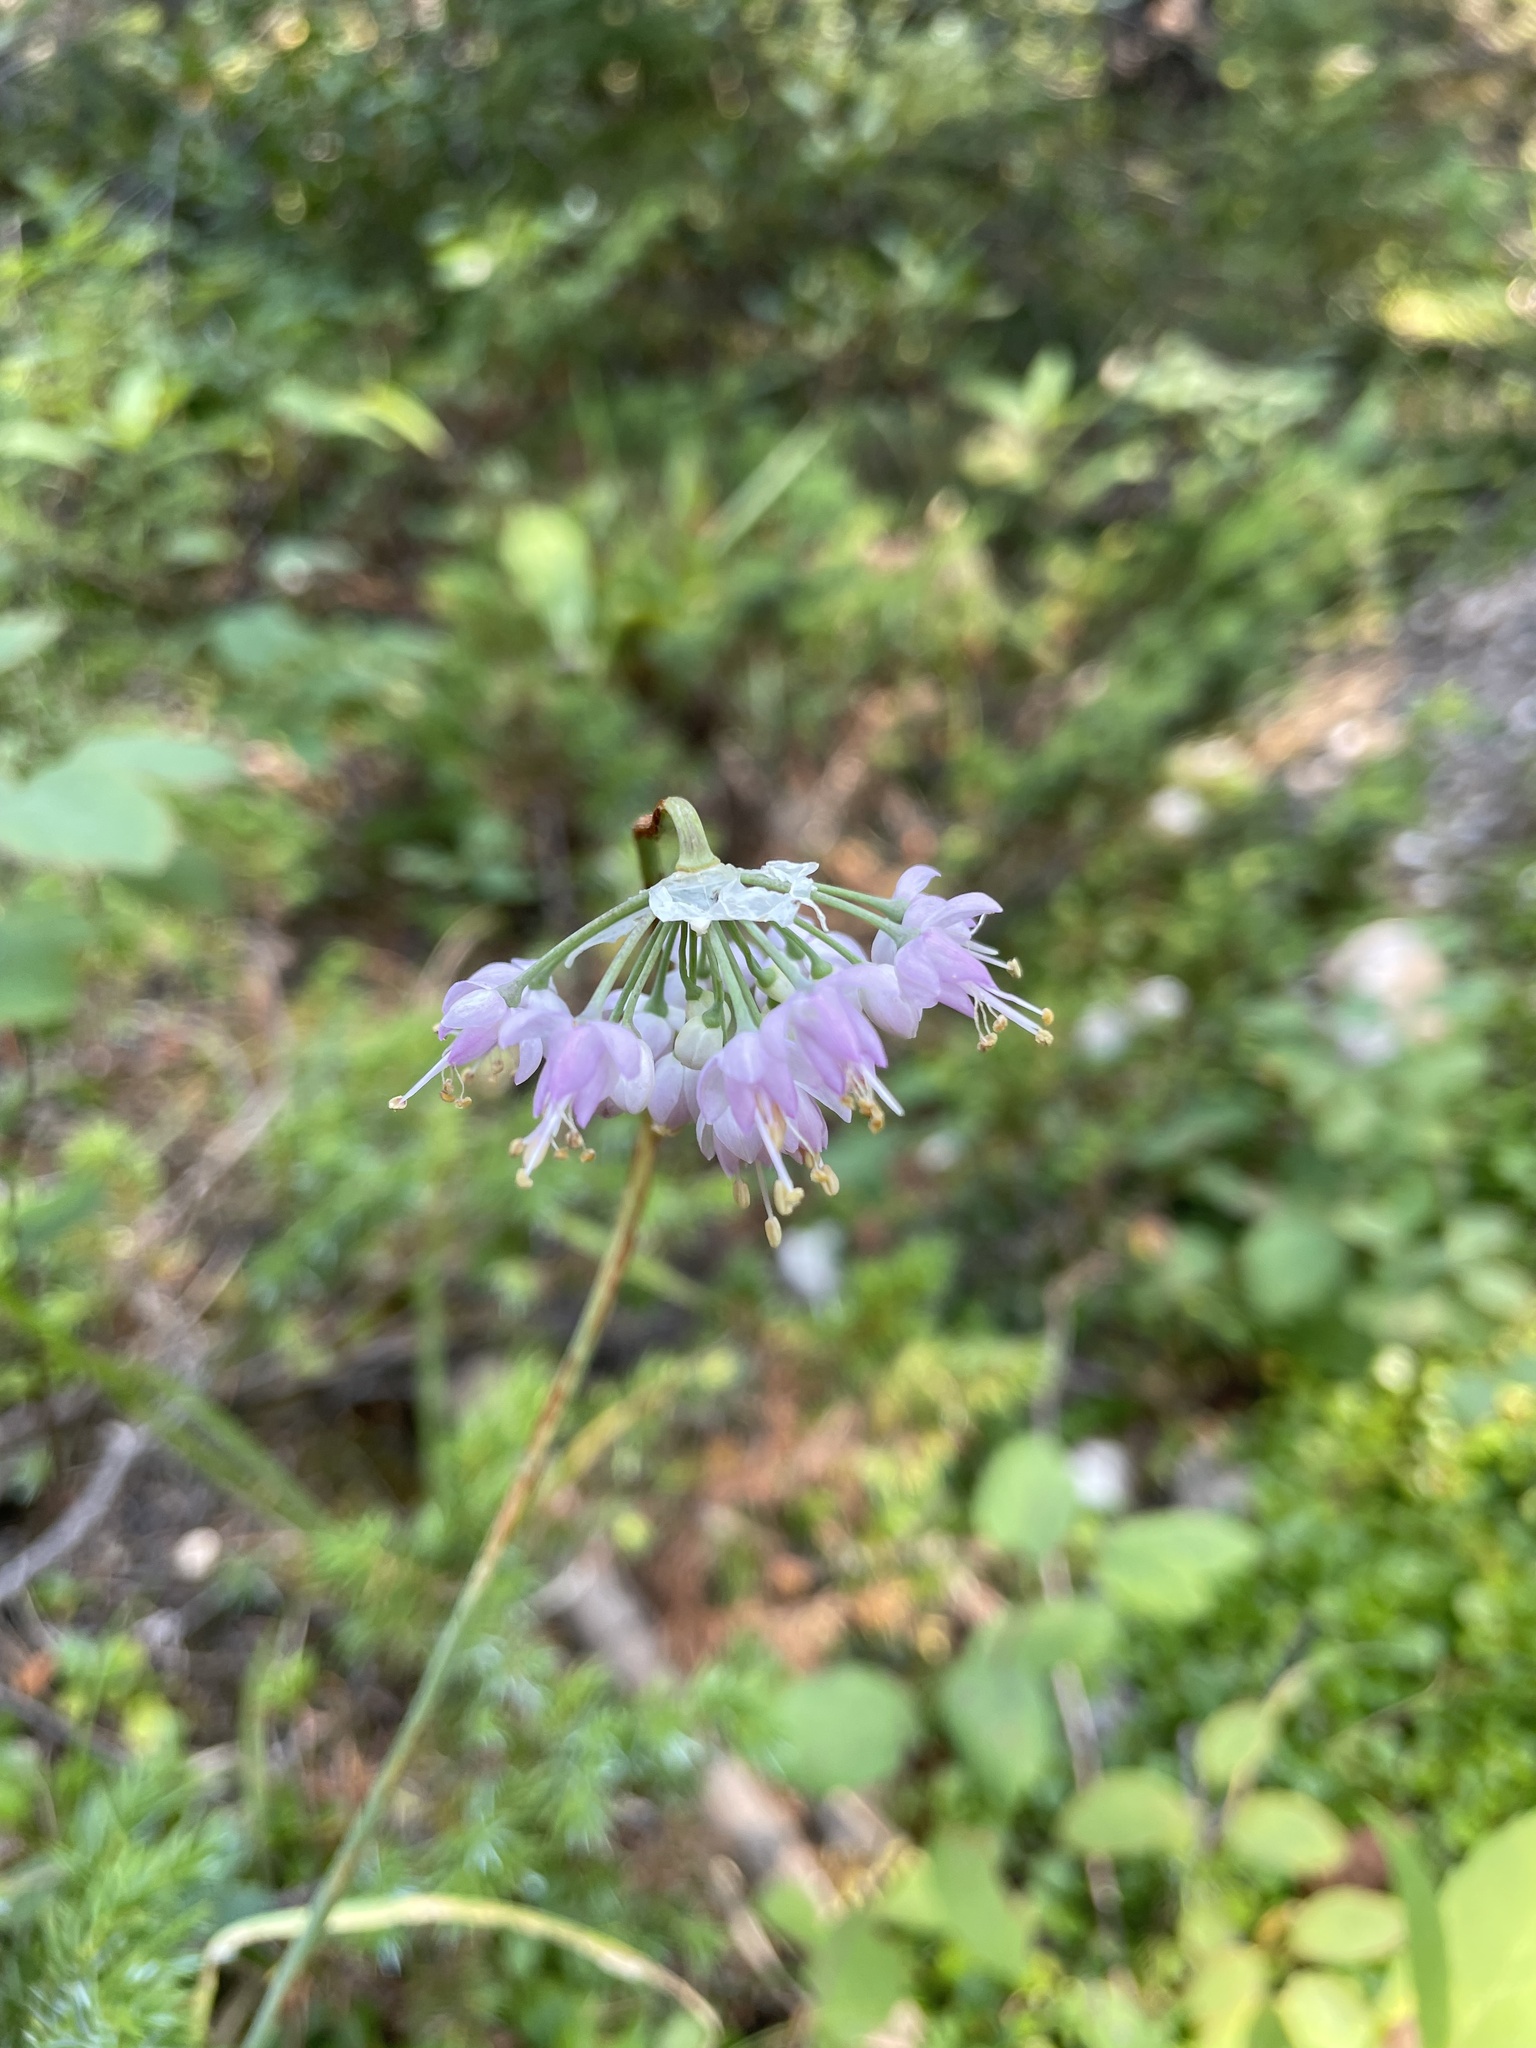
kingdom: Plantae
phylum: Tracheophyta
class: Liliopsida
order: Asparagales
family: Amaryllidaceae
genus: Allium
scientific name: Allium cernuum
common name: Nodding onion
